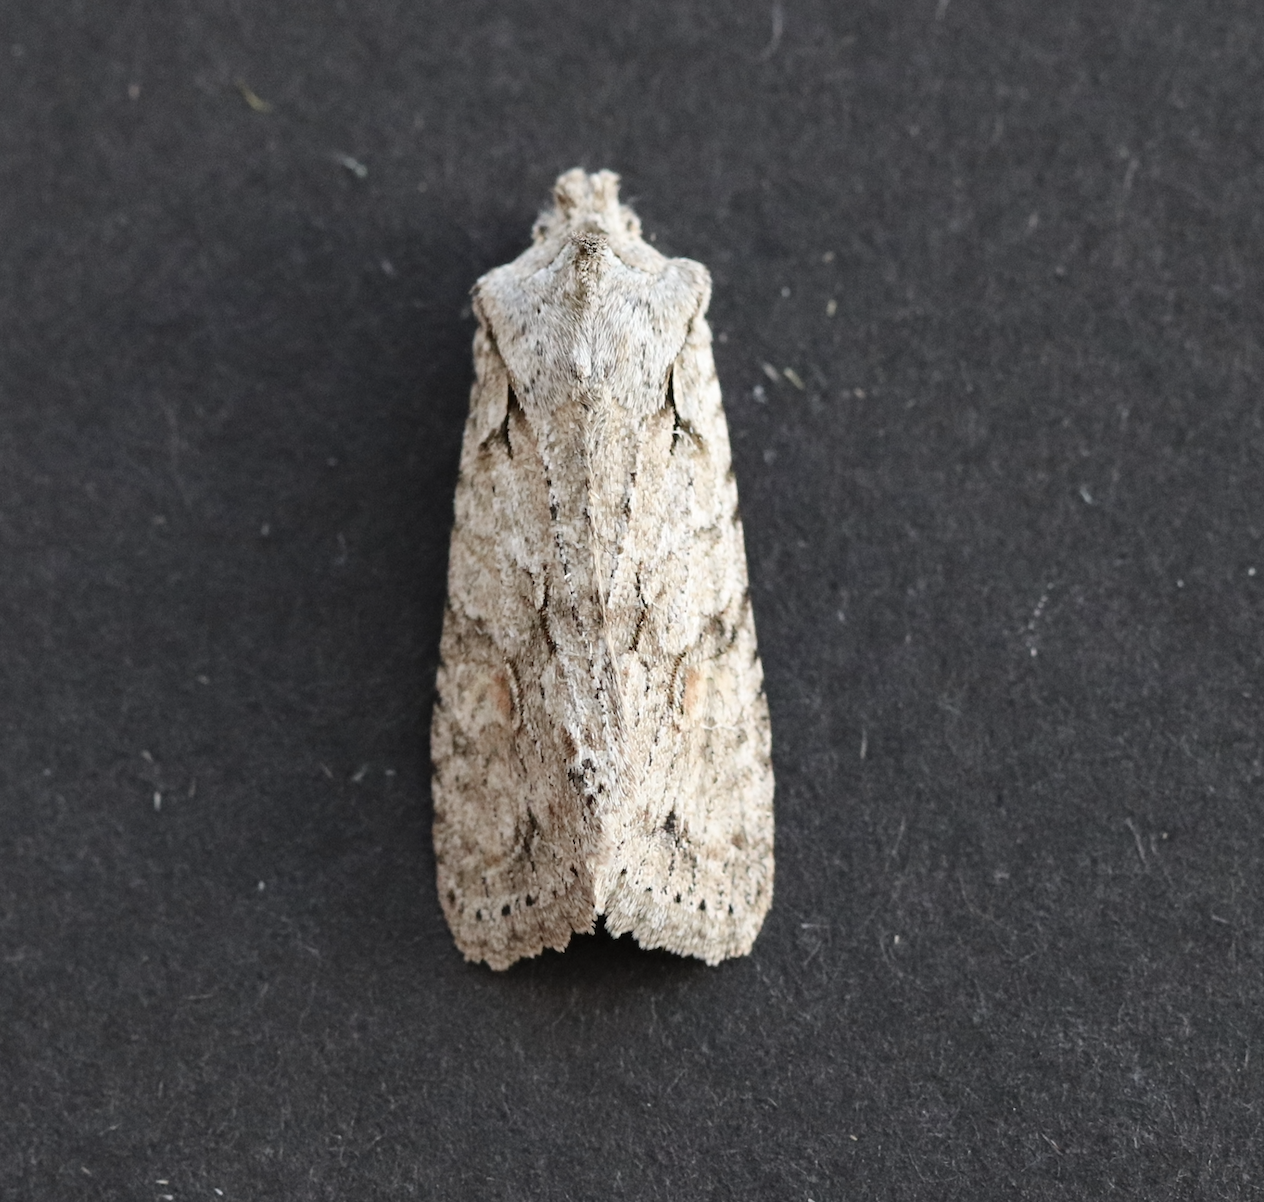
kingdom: Animalia
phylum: Arthropoda
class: Insecta
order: Lepidoptera
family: Noctuidae
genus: Lithophane
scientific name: Lithophane ornitopus
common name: Grey shoulder-knot
